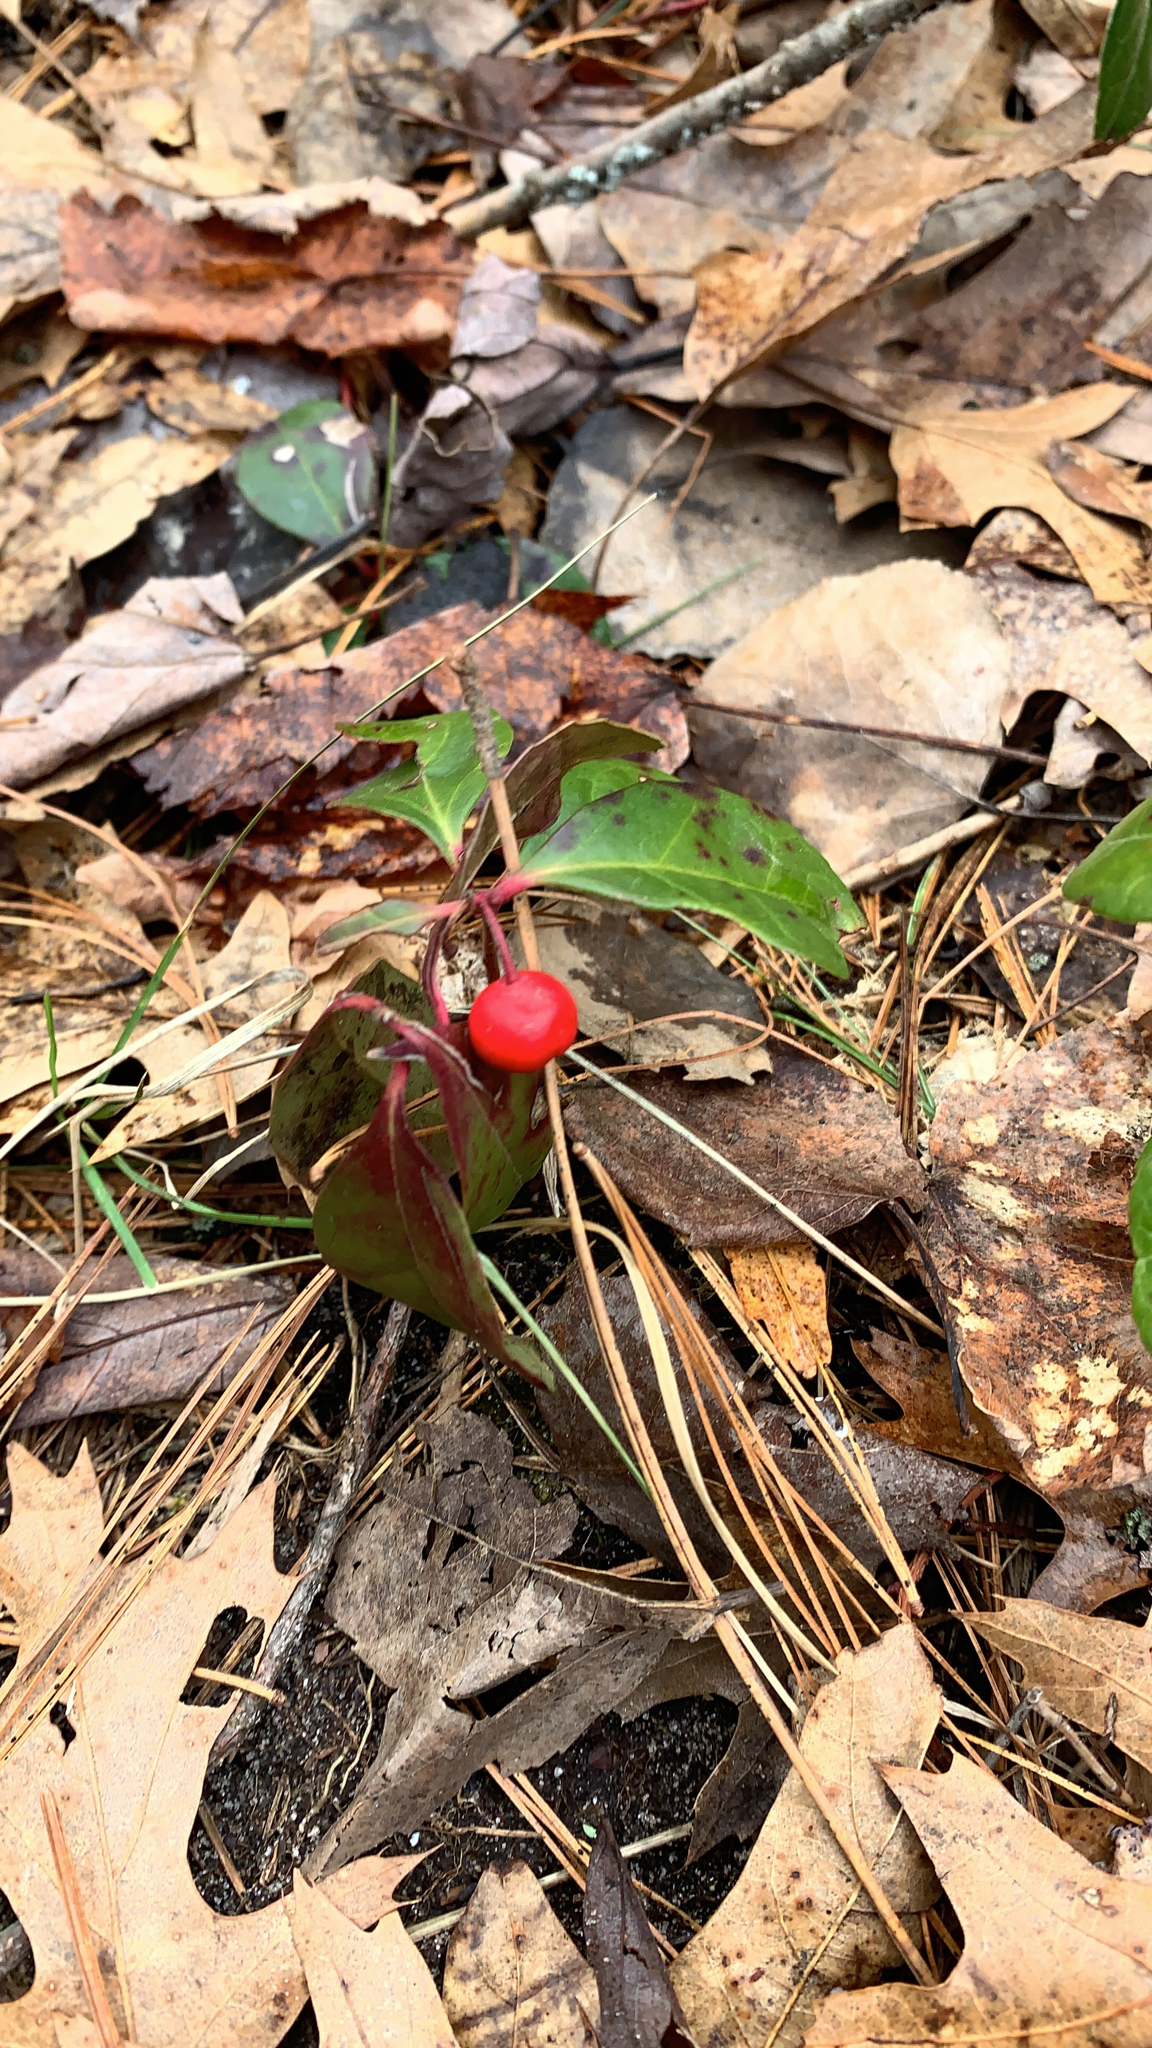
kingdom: Plantae
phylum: Tracheophyta
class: Magnoliopsida
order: Ericales
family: Ericaceae
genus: Gaultheria
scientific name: Gaultheria procumbens
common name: Checkerberry
